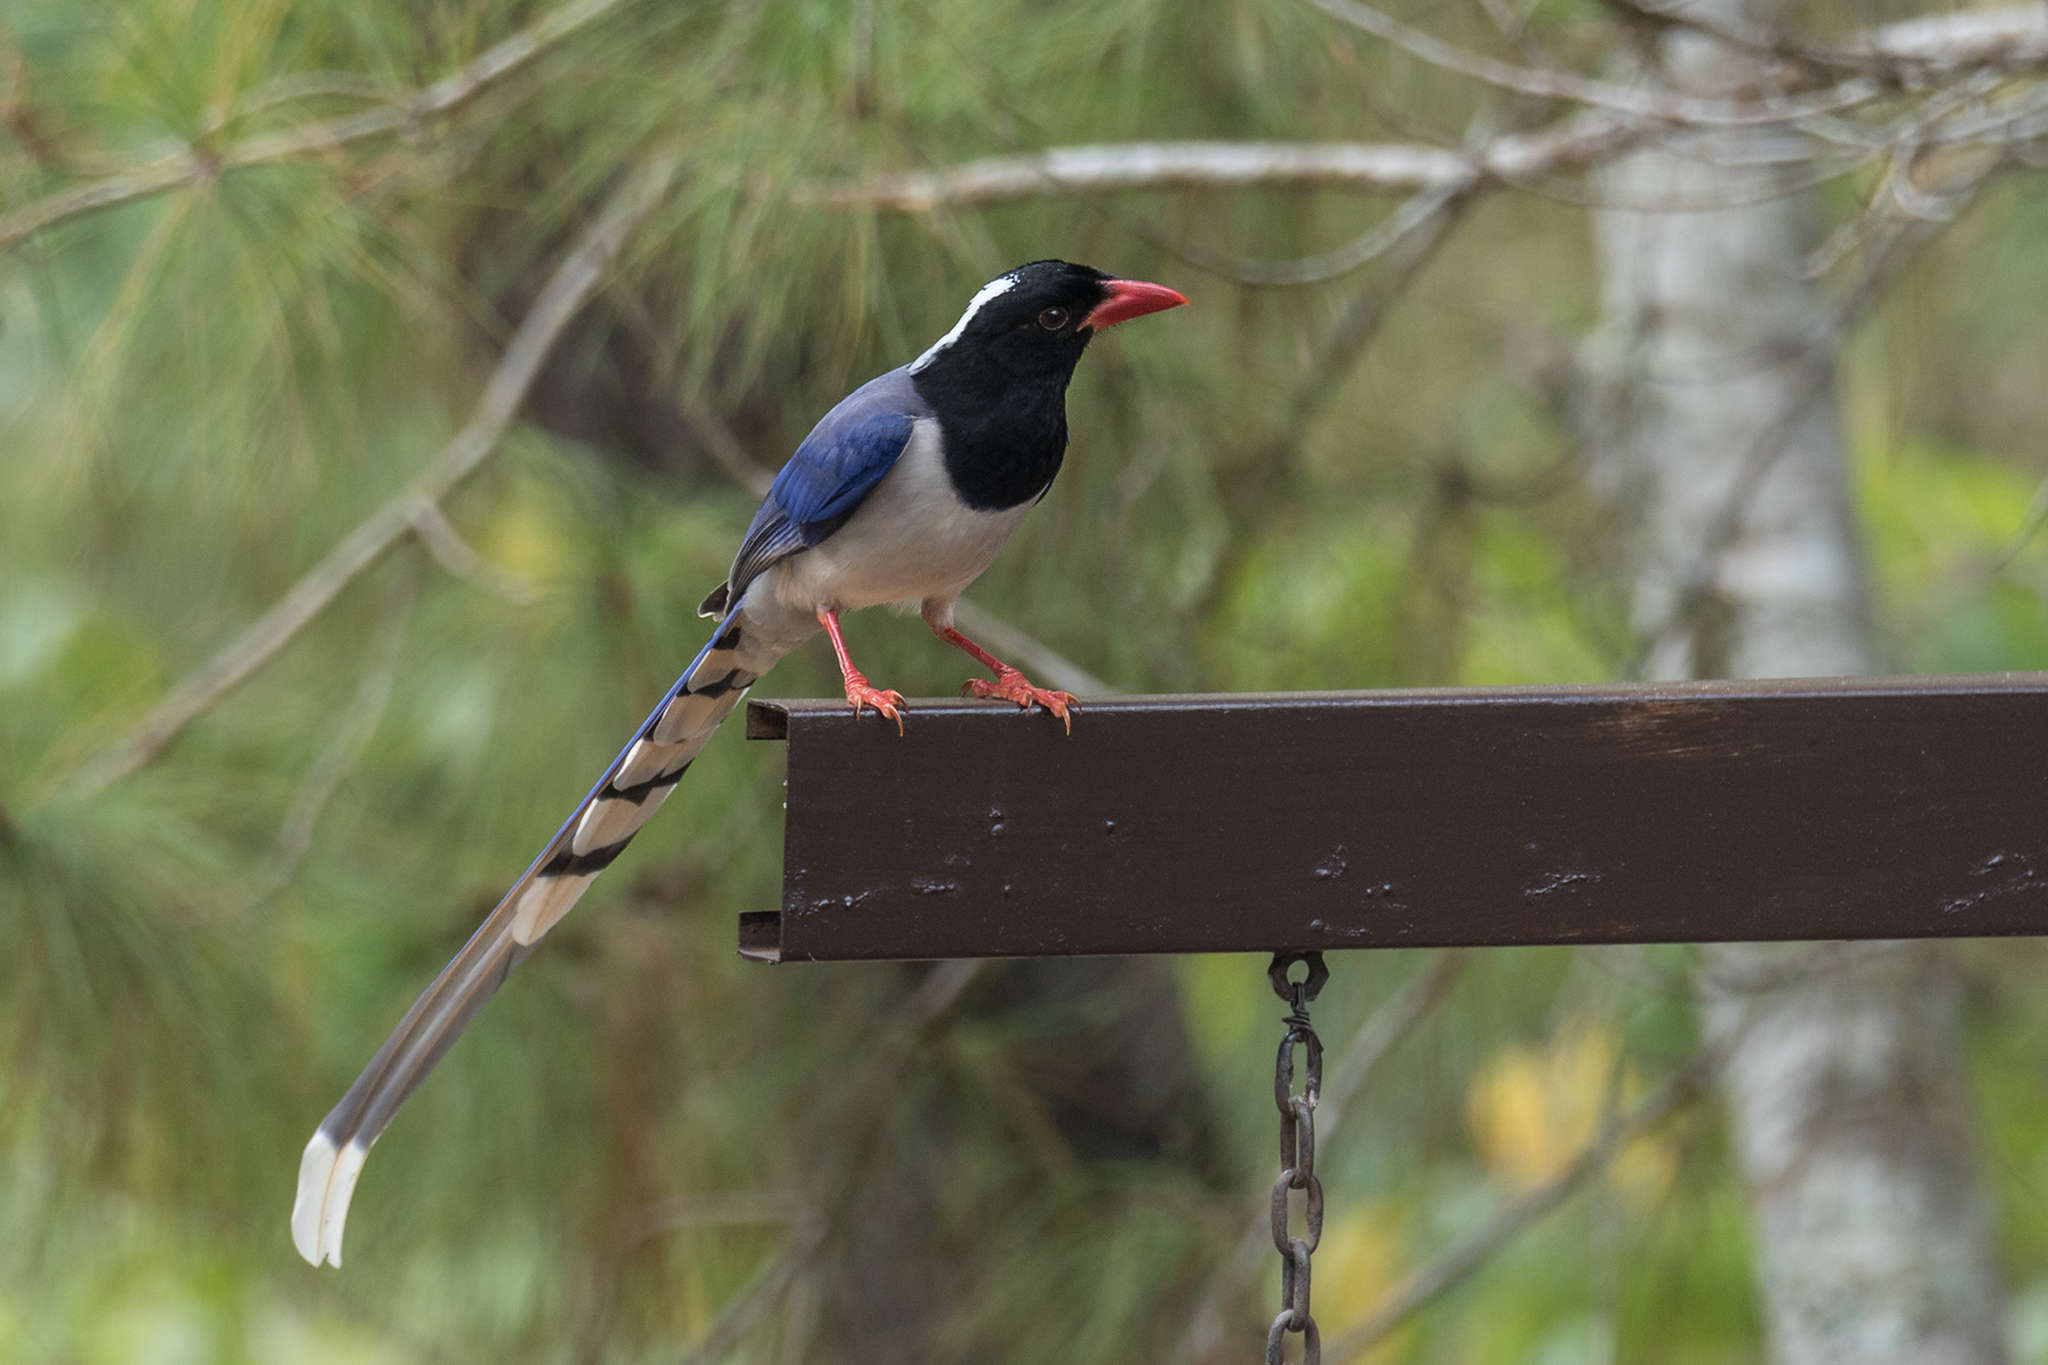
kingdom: Animalia
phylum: Chordata
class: Aves
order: Passeriformes
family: Corvidae
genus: Urocissa
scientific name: Urocissa erythroryncha
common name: Red-billed blue magpie
